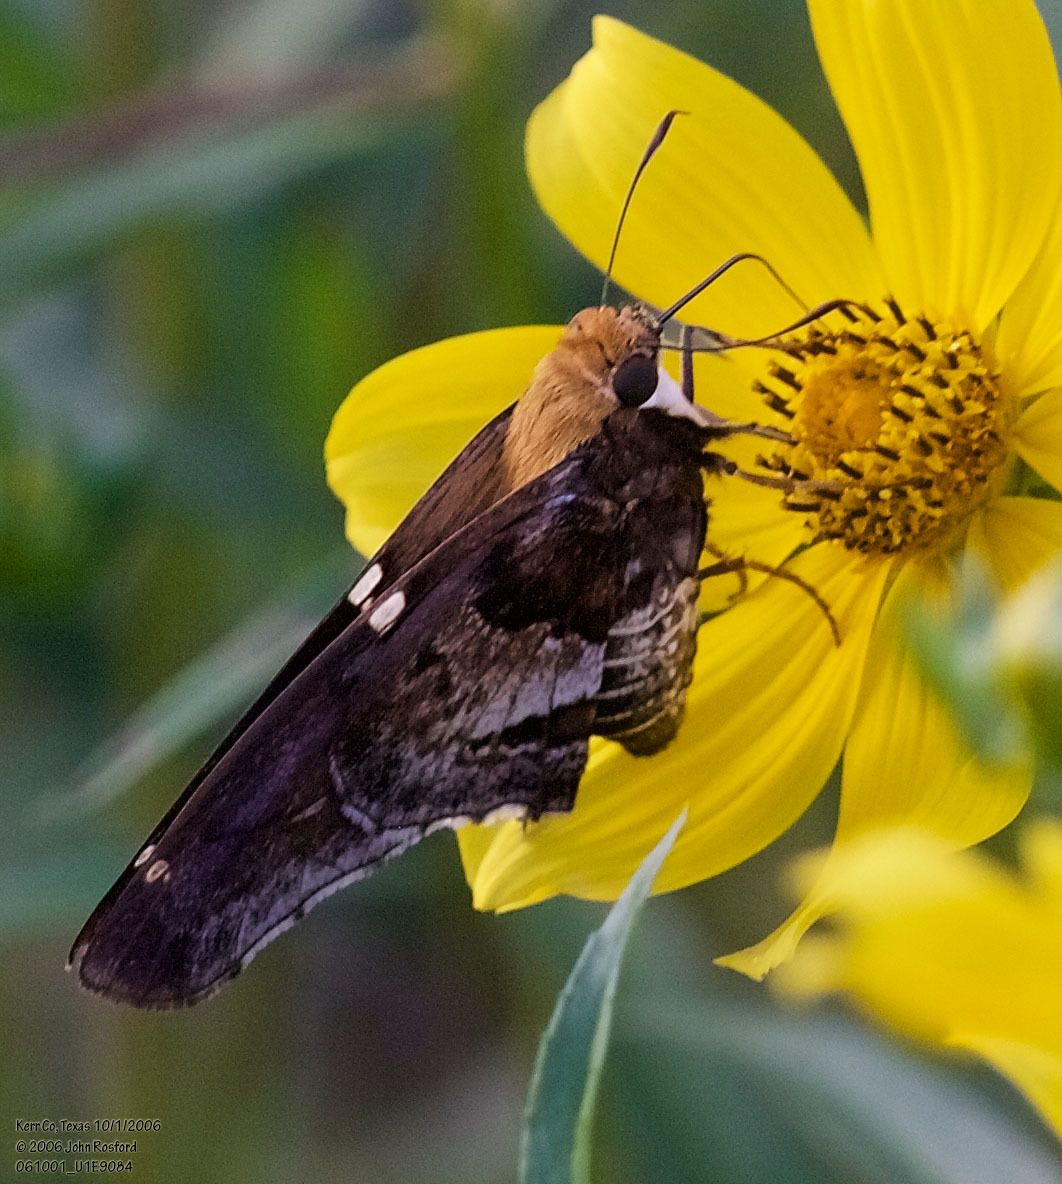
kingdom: Animalia
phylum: Arthropoda
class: Insecta
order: Lepidoptera
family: Hesperiidae
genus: Proteides
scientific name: Proteides mercurius
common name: Mercurial skipper
